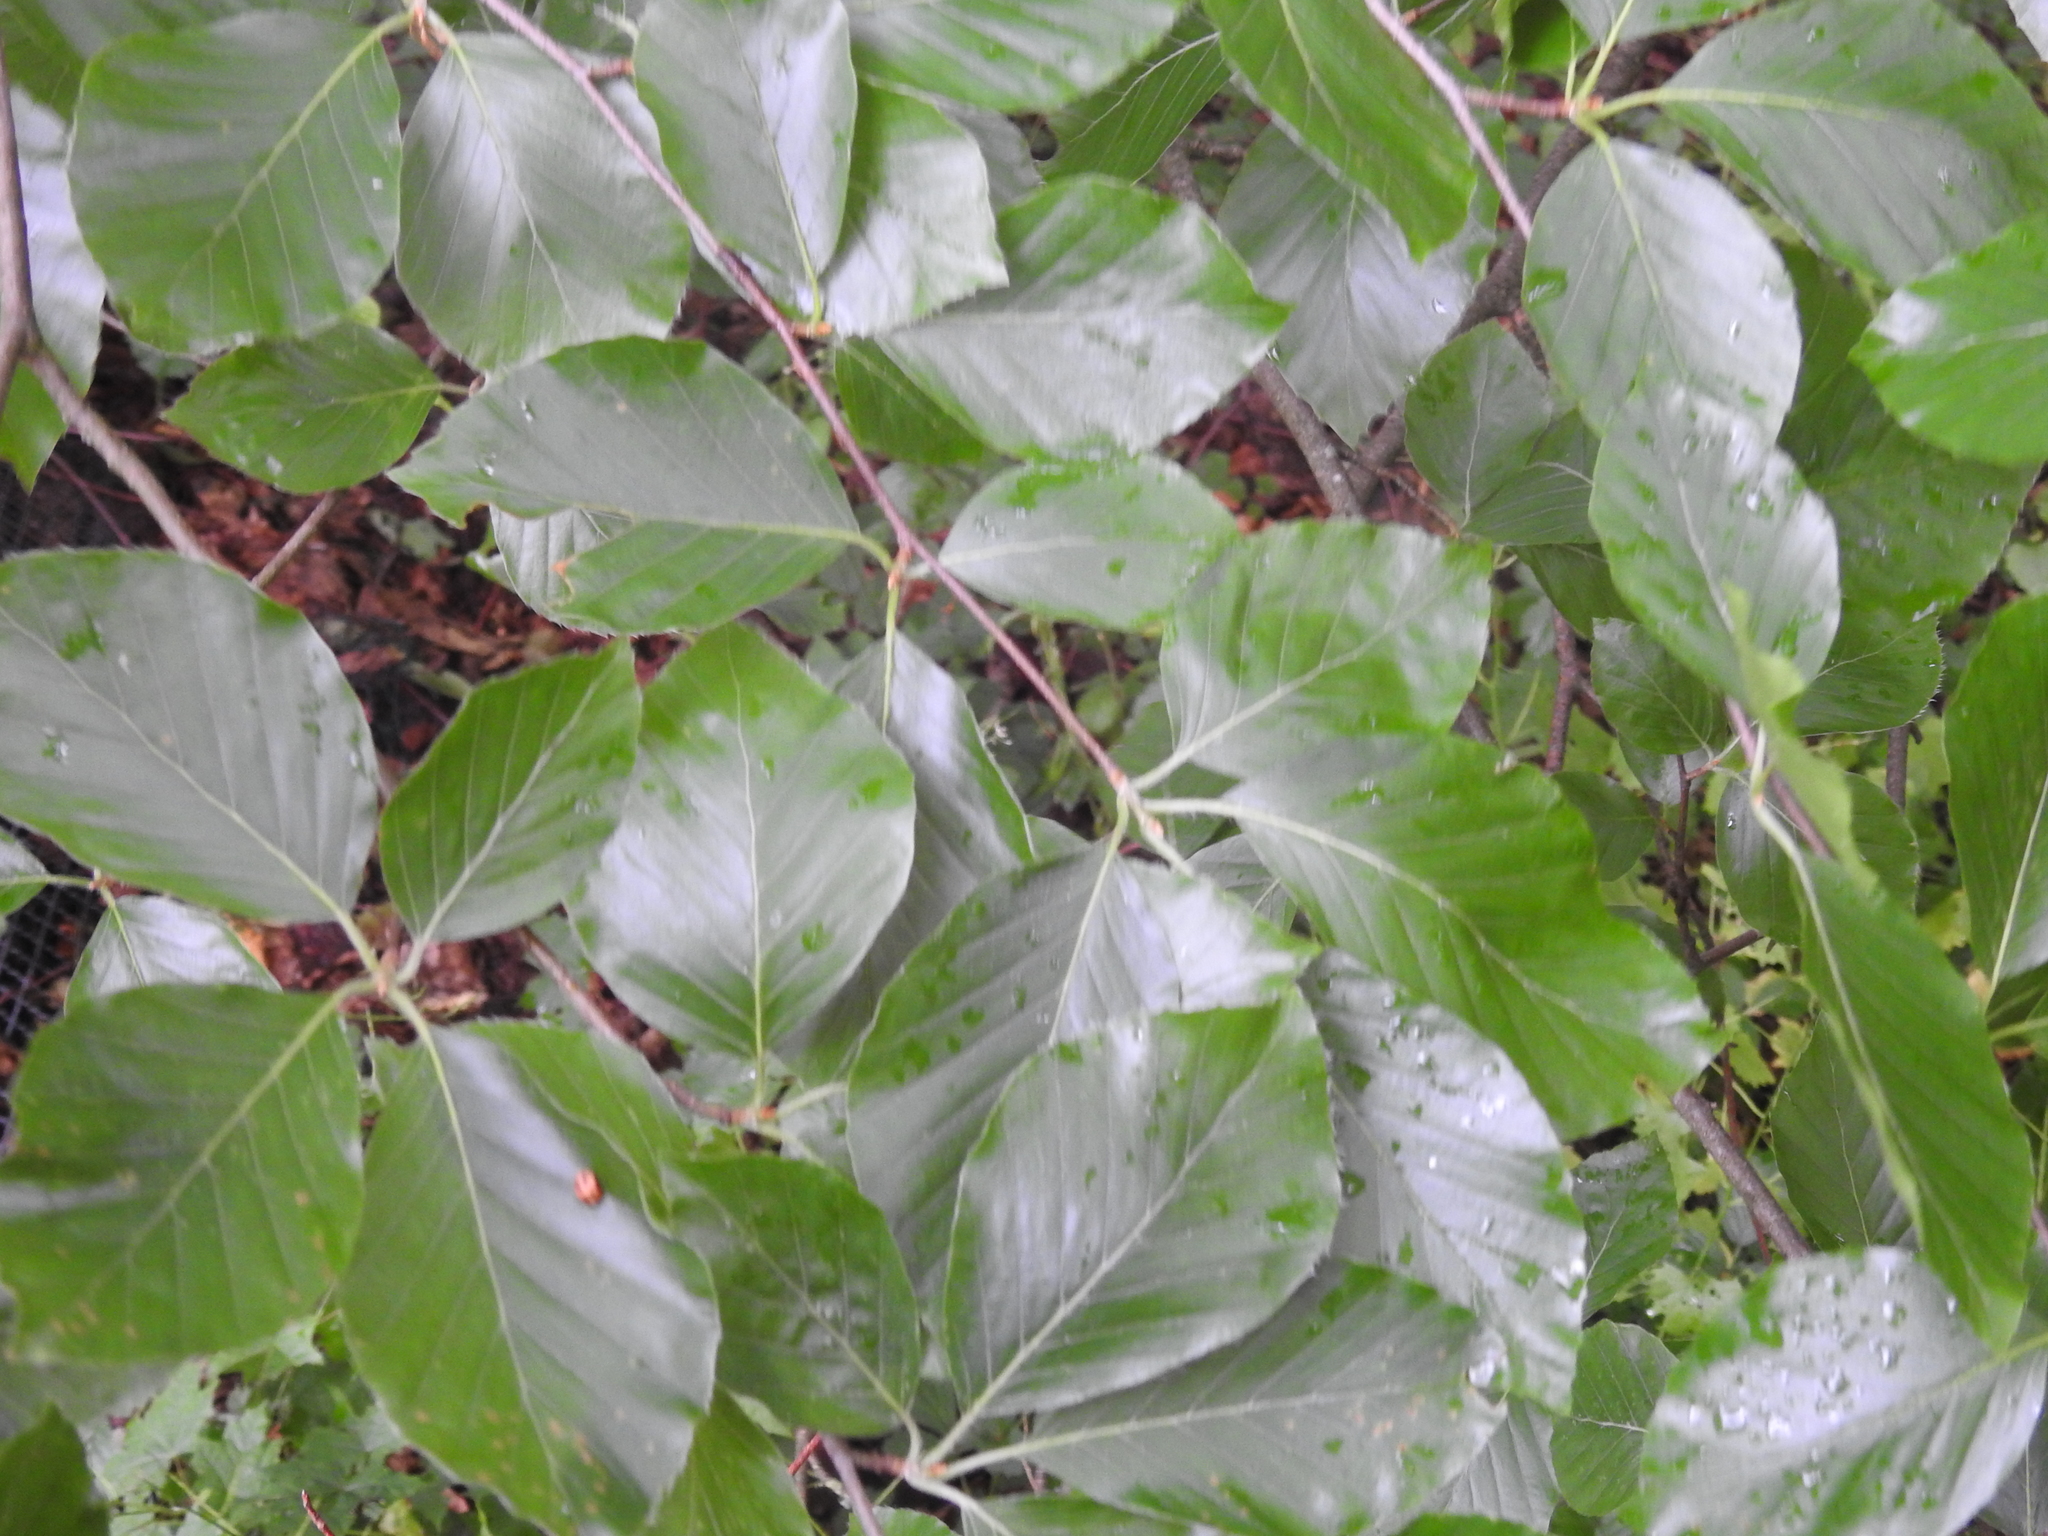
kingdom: Plantae
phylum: Tracheophyta
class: Magnoliopsida
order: Fagales
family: Fagaceae
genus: Fagus
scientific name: Fagus sylvatica
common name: Beech
